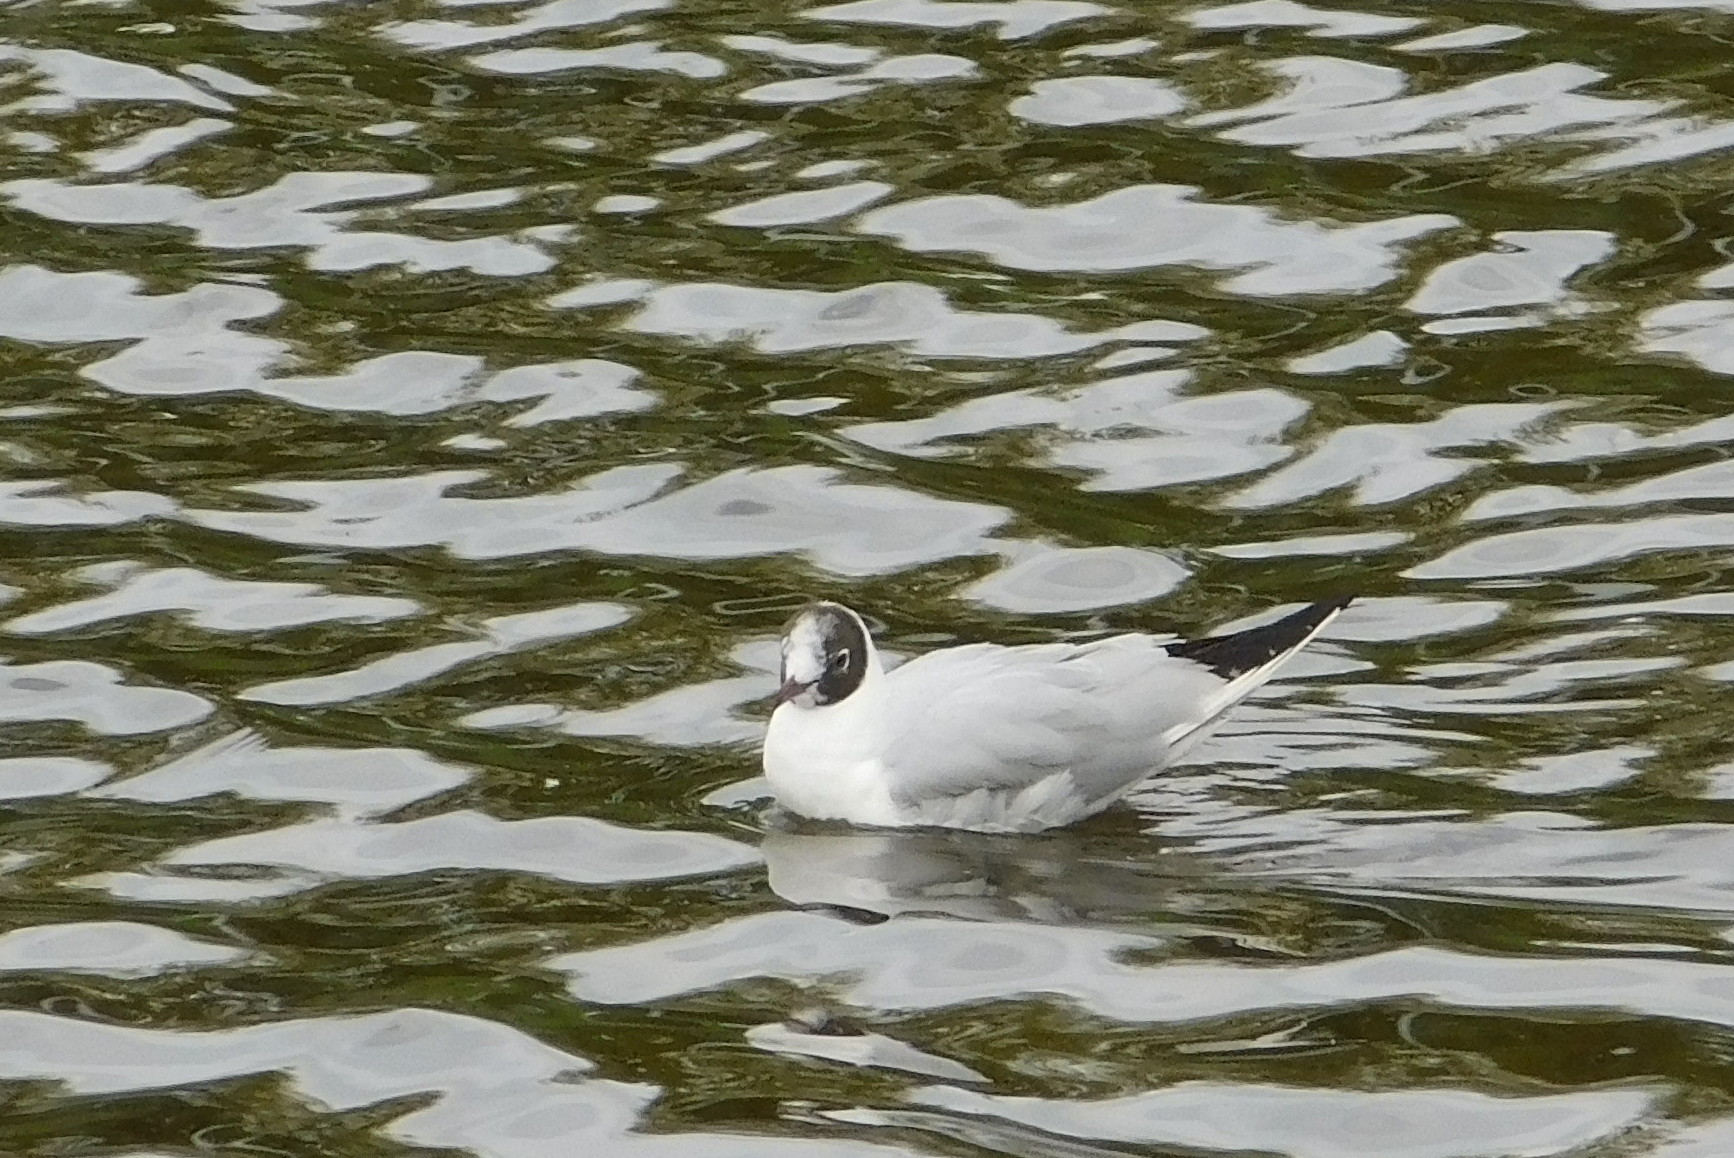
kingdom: Animalia
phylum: Chordata
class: Aves
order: Charadriiformes
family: Laridae
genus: Chroicocephalus
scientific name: Chroicocephalus ridibundus
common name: Black-headed gull
